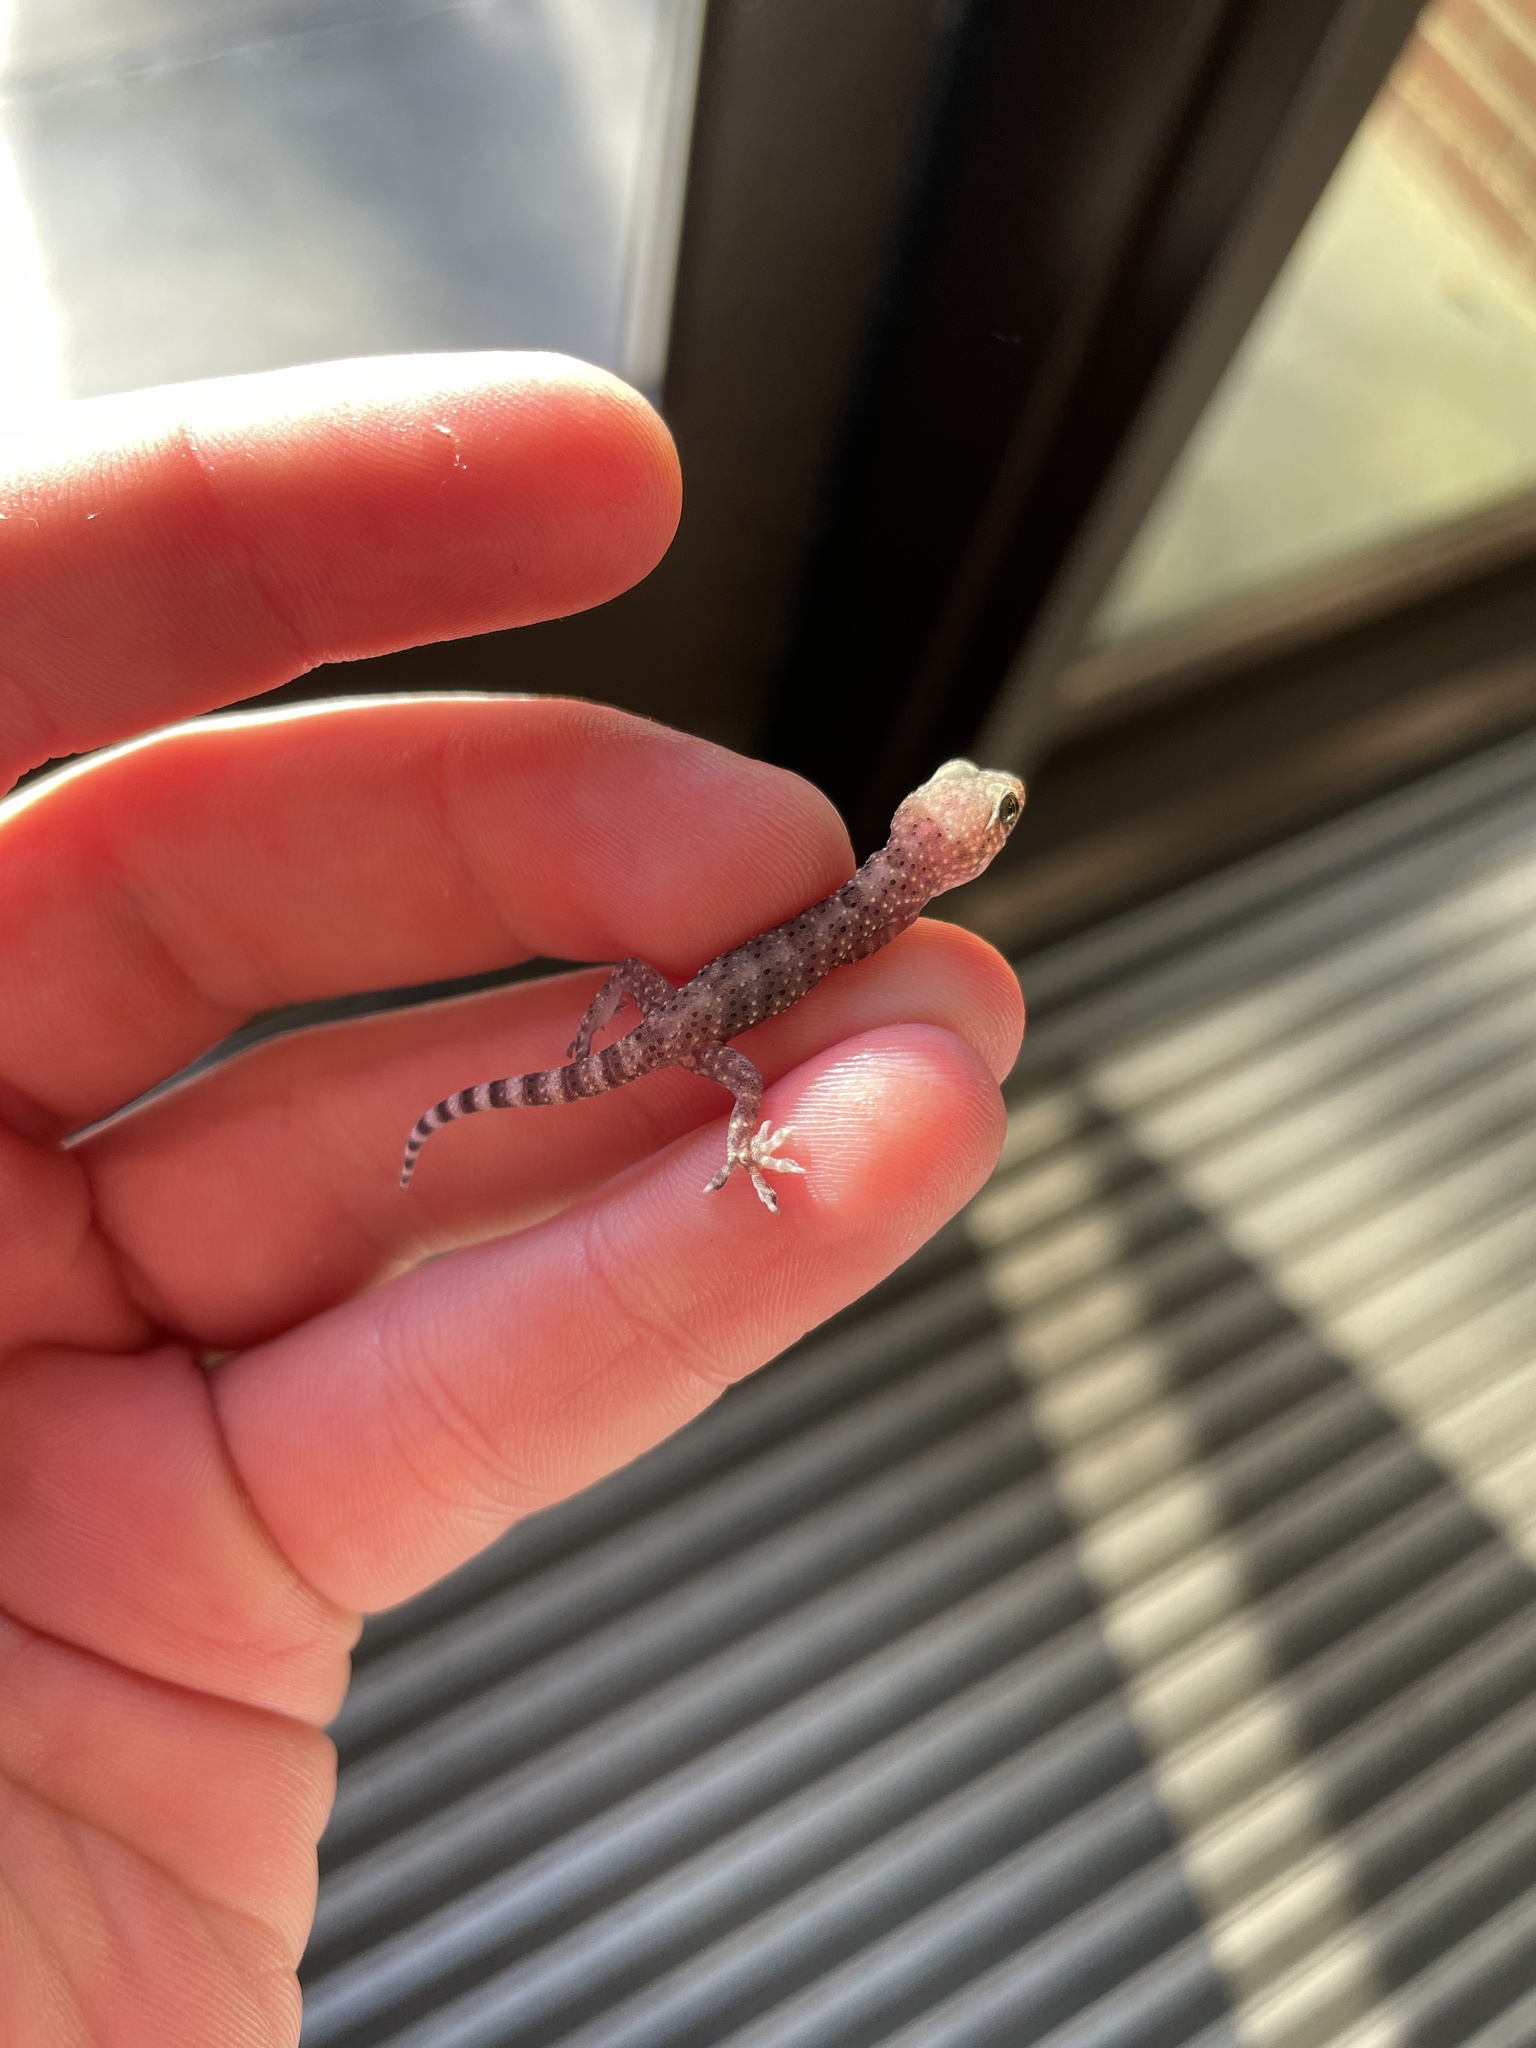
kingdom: Animalia
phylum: Chordata
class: Squamata
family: Gekkonidae
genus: Hemidactylus
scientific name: Hemidactylus turcicus
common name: Turkish gecko
